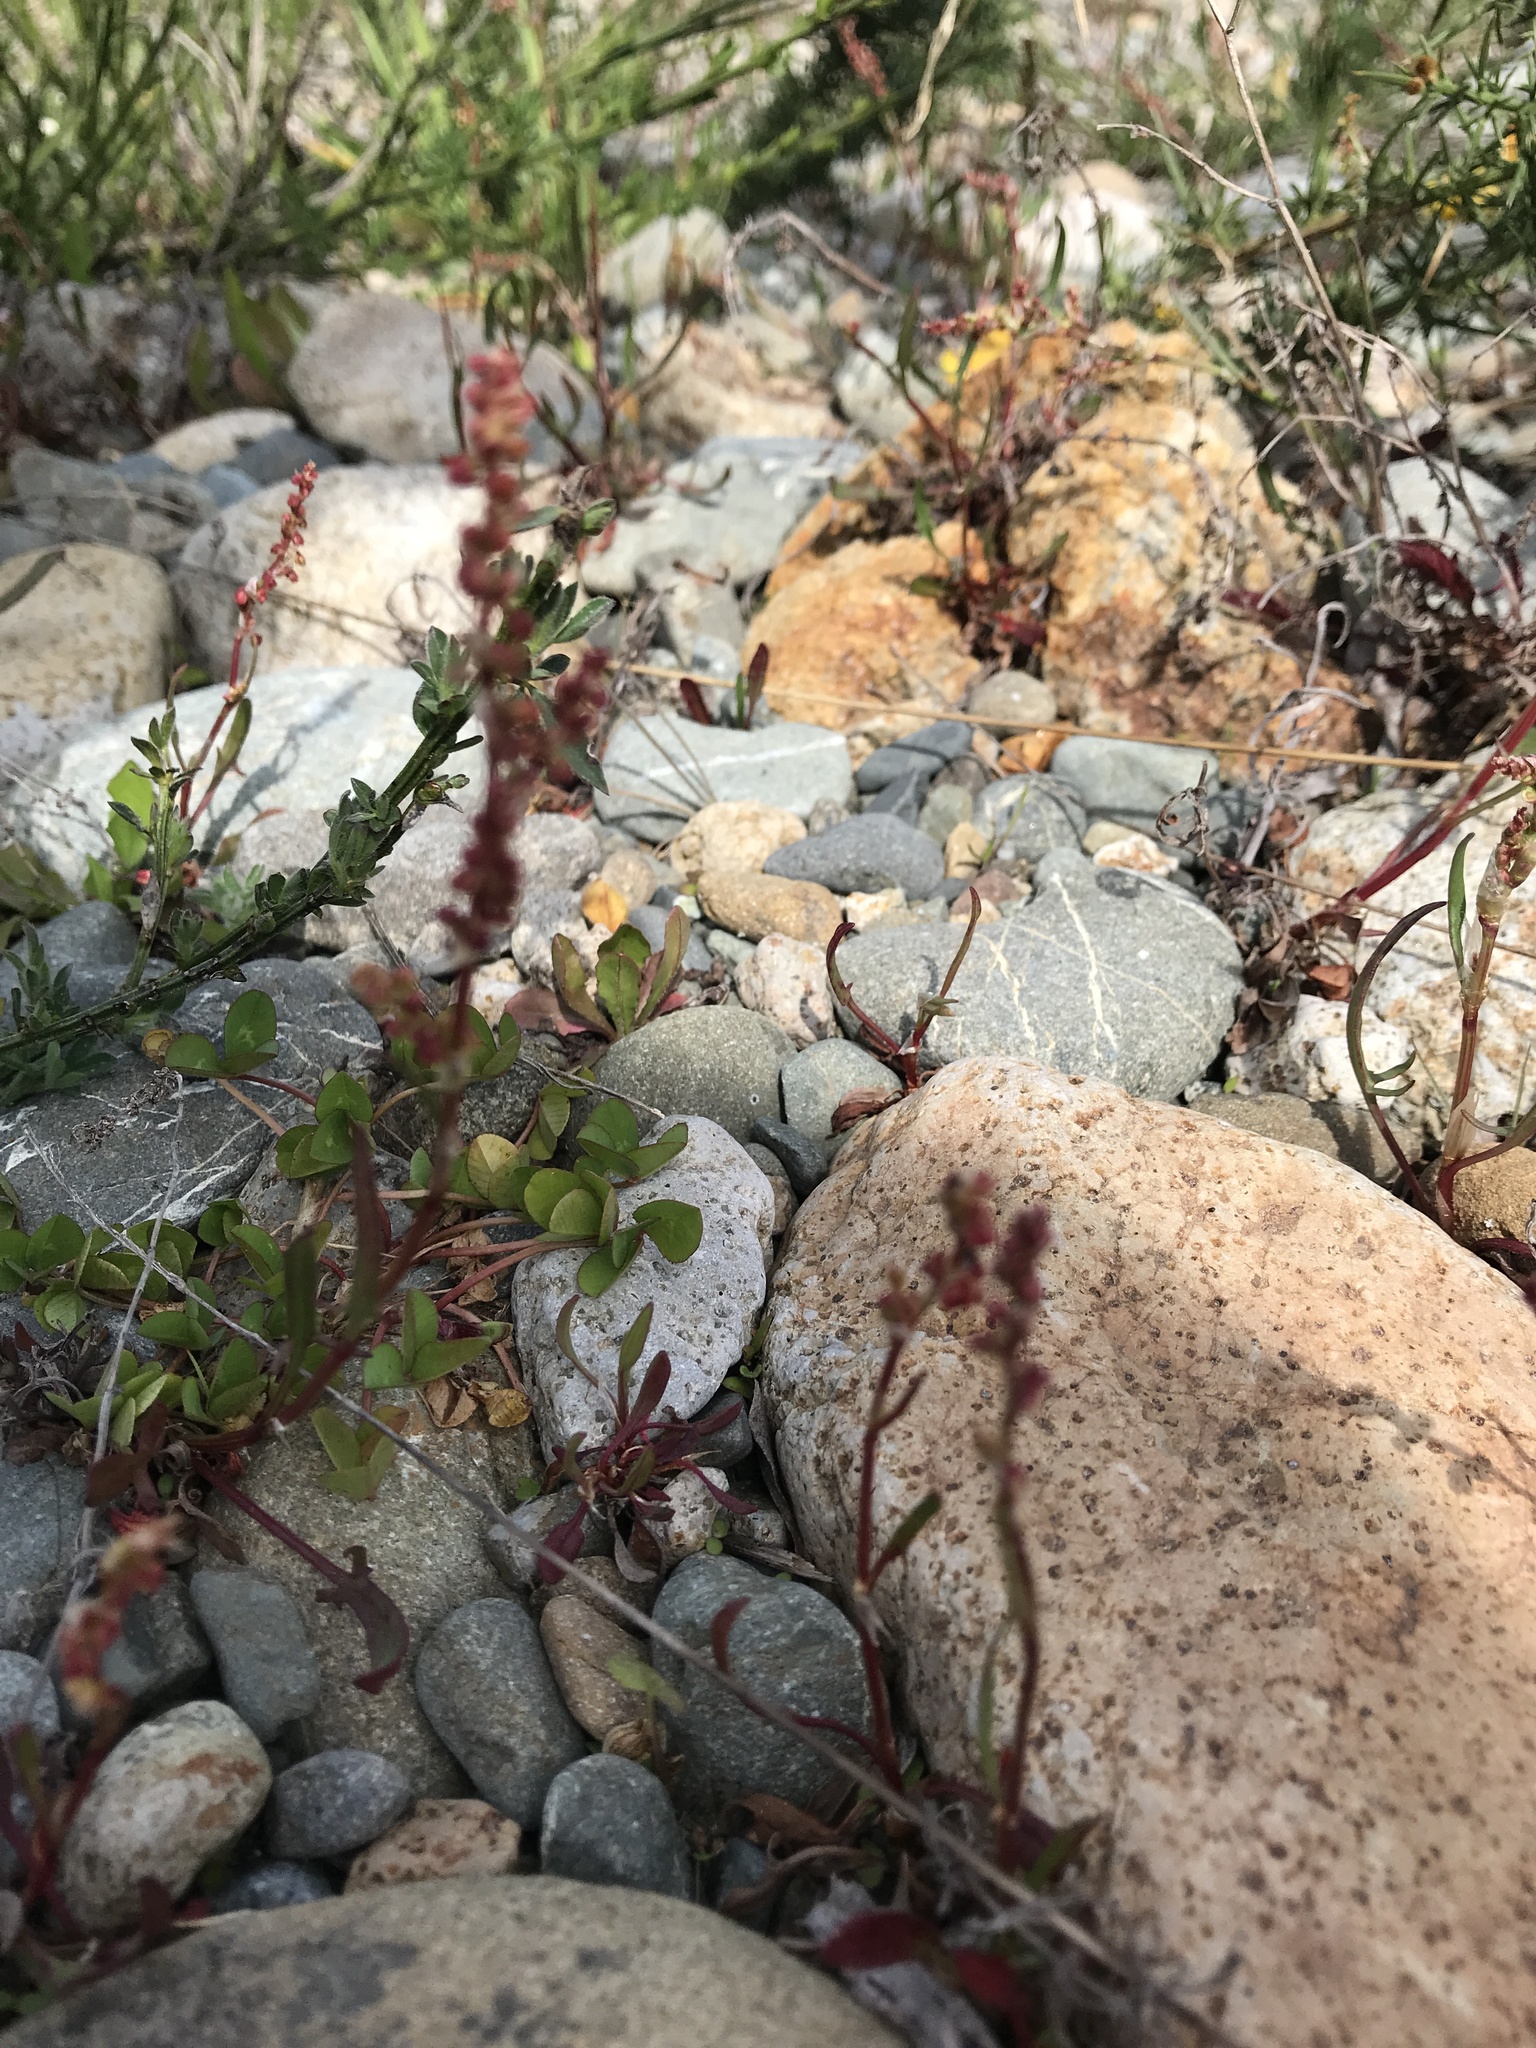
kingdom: Plantae
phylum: Tracheophyta
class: Magnoliopsida
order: Caryophyllales
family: Polygonaceae
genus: Rumex
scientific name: Rumex acetosella
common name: Common sheep sorrel
